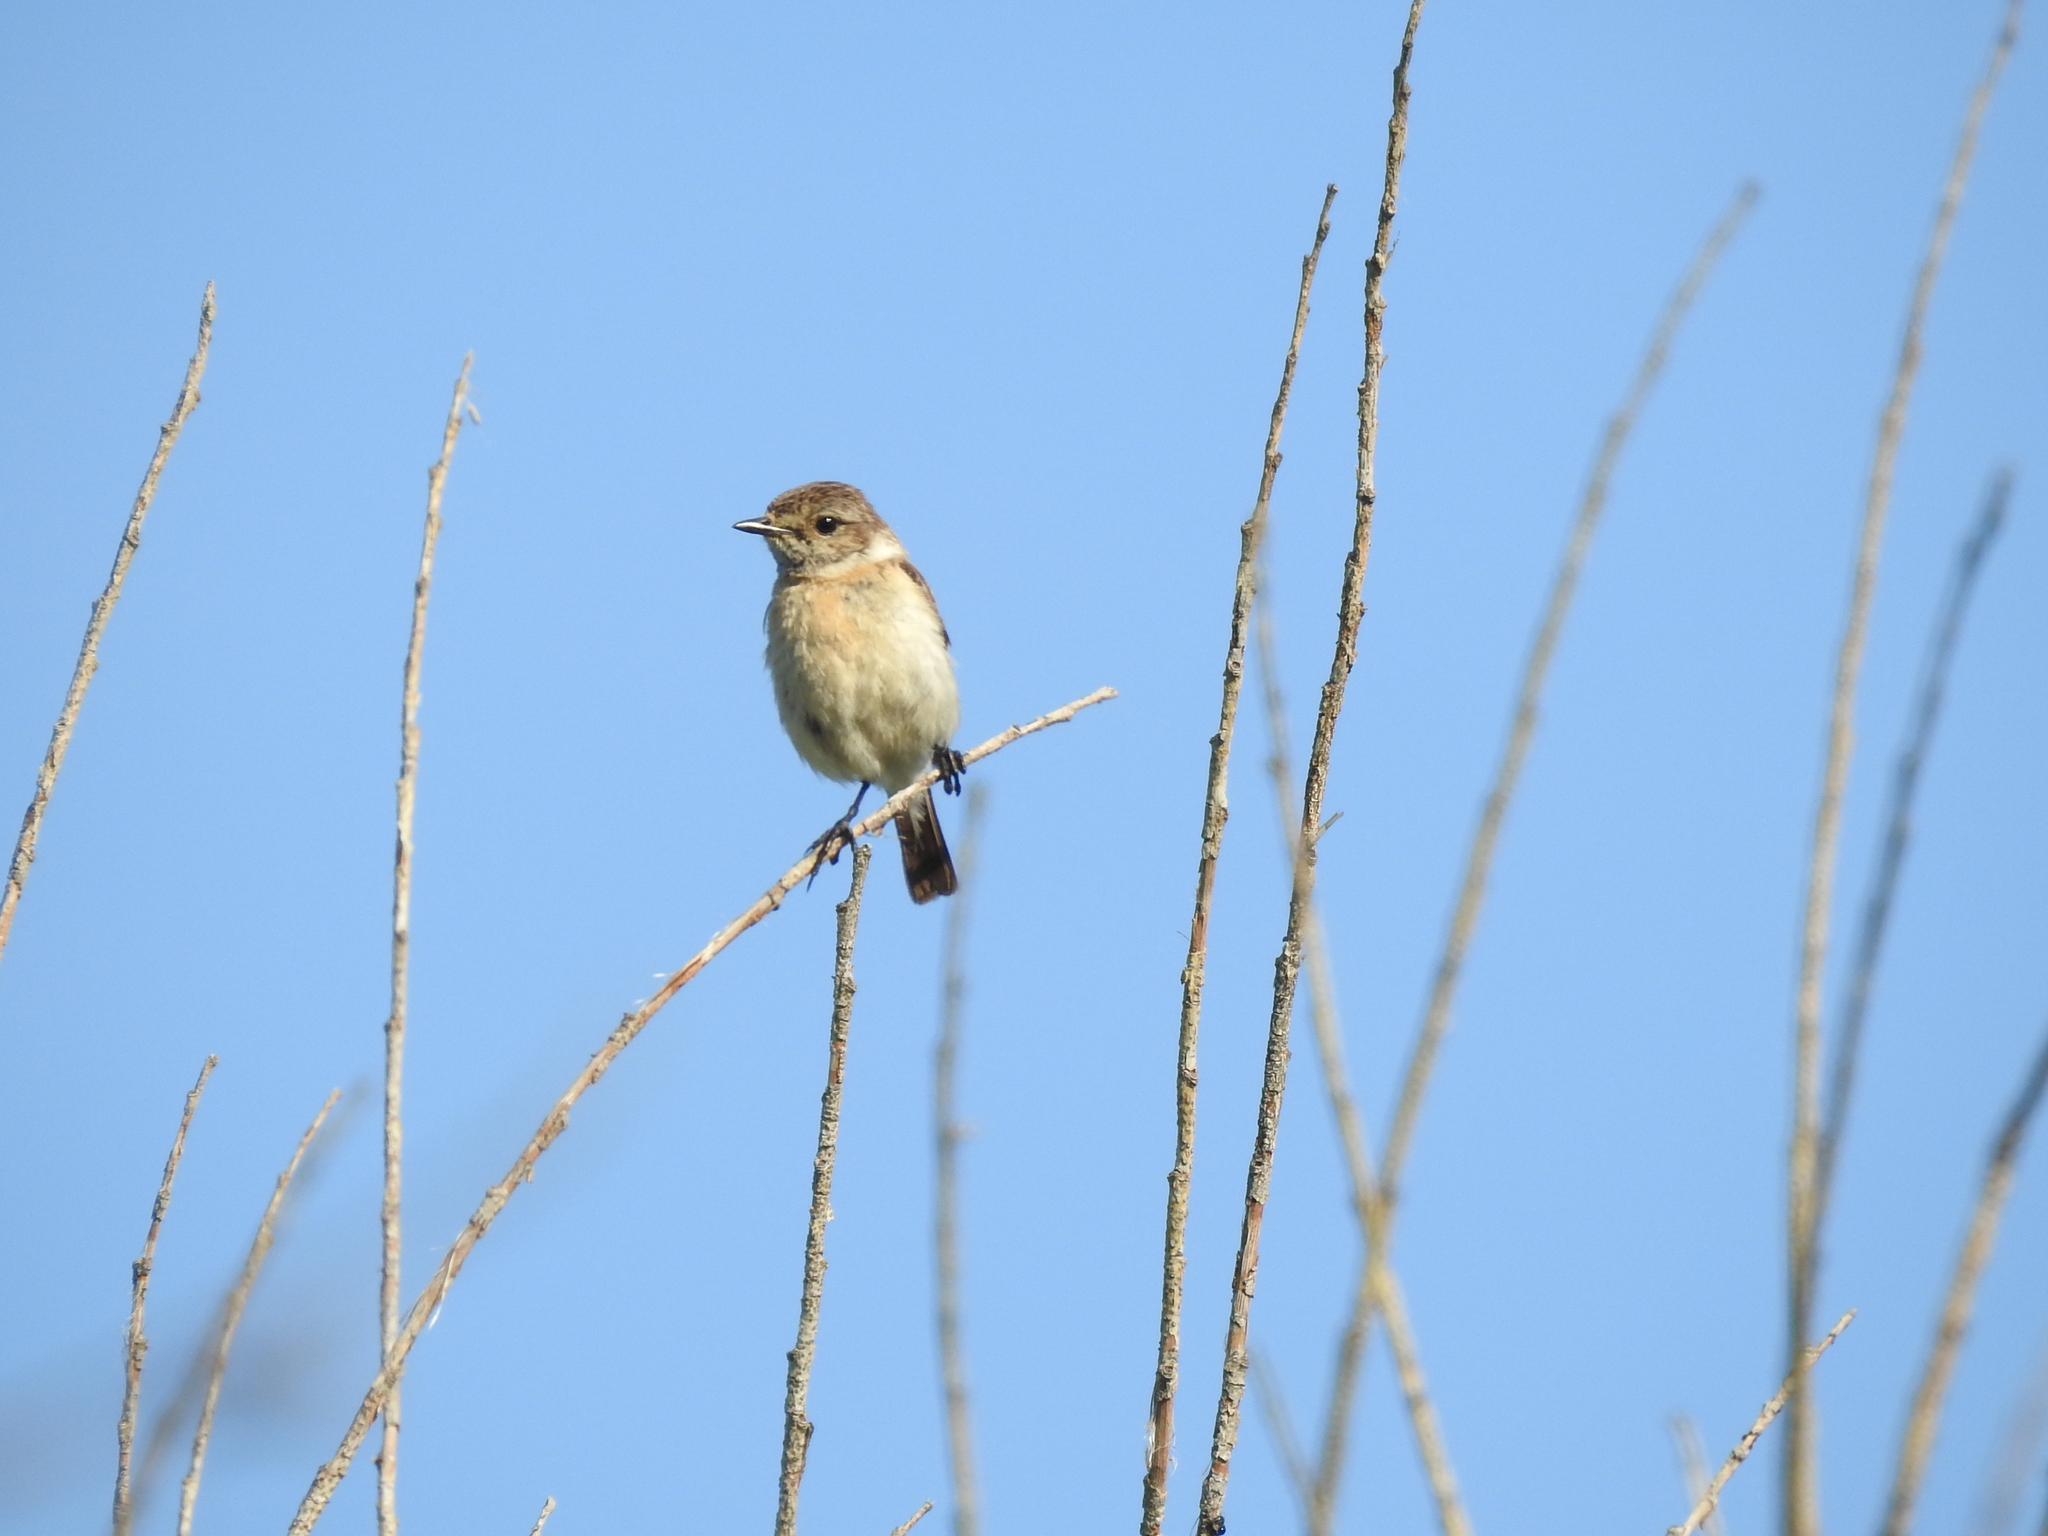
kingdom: Animalia
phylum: Chordata
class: Aves
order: Passeriformes
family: Muscicapidae
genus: Saxicola
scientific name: Saxicola maurus
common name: Siberian stonechat
